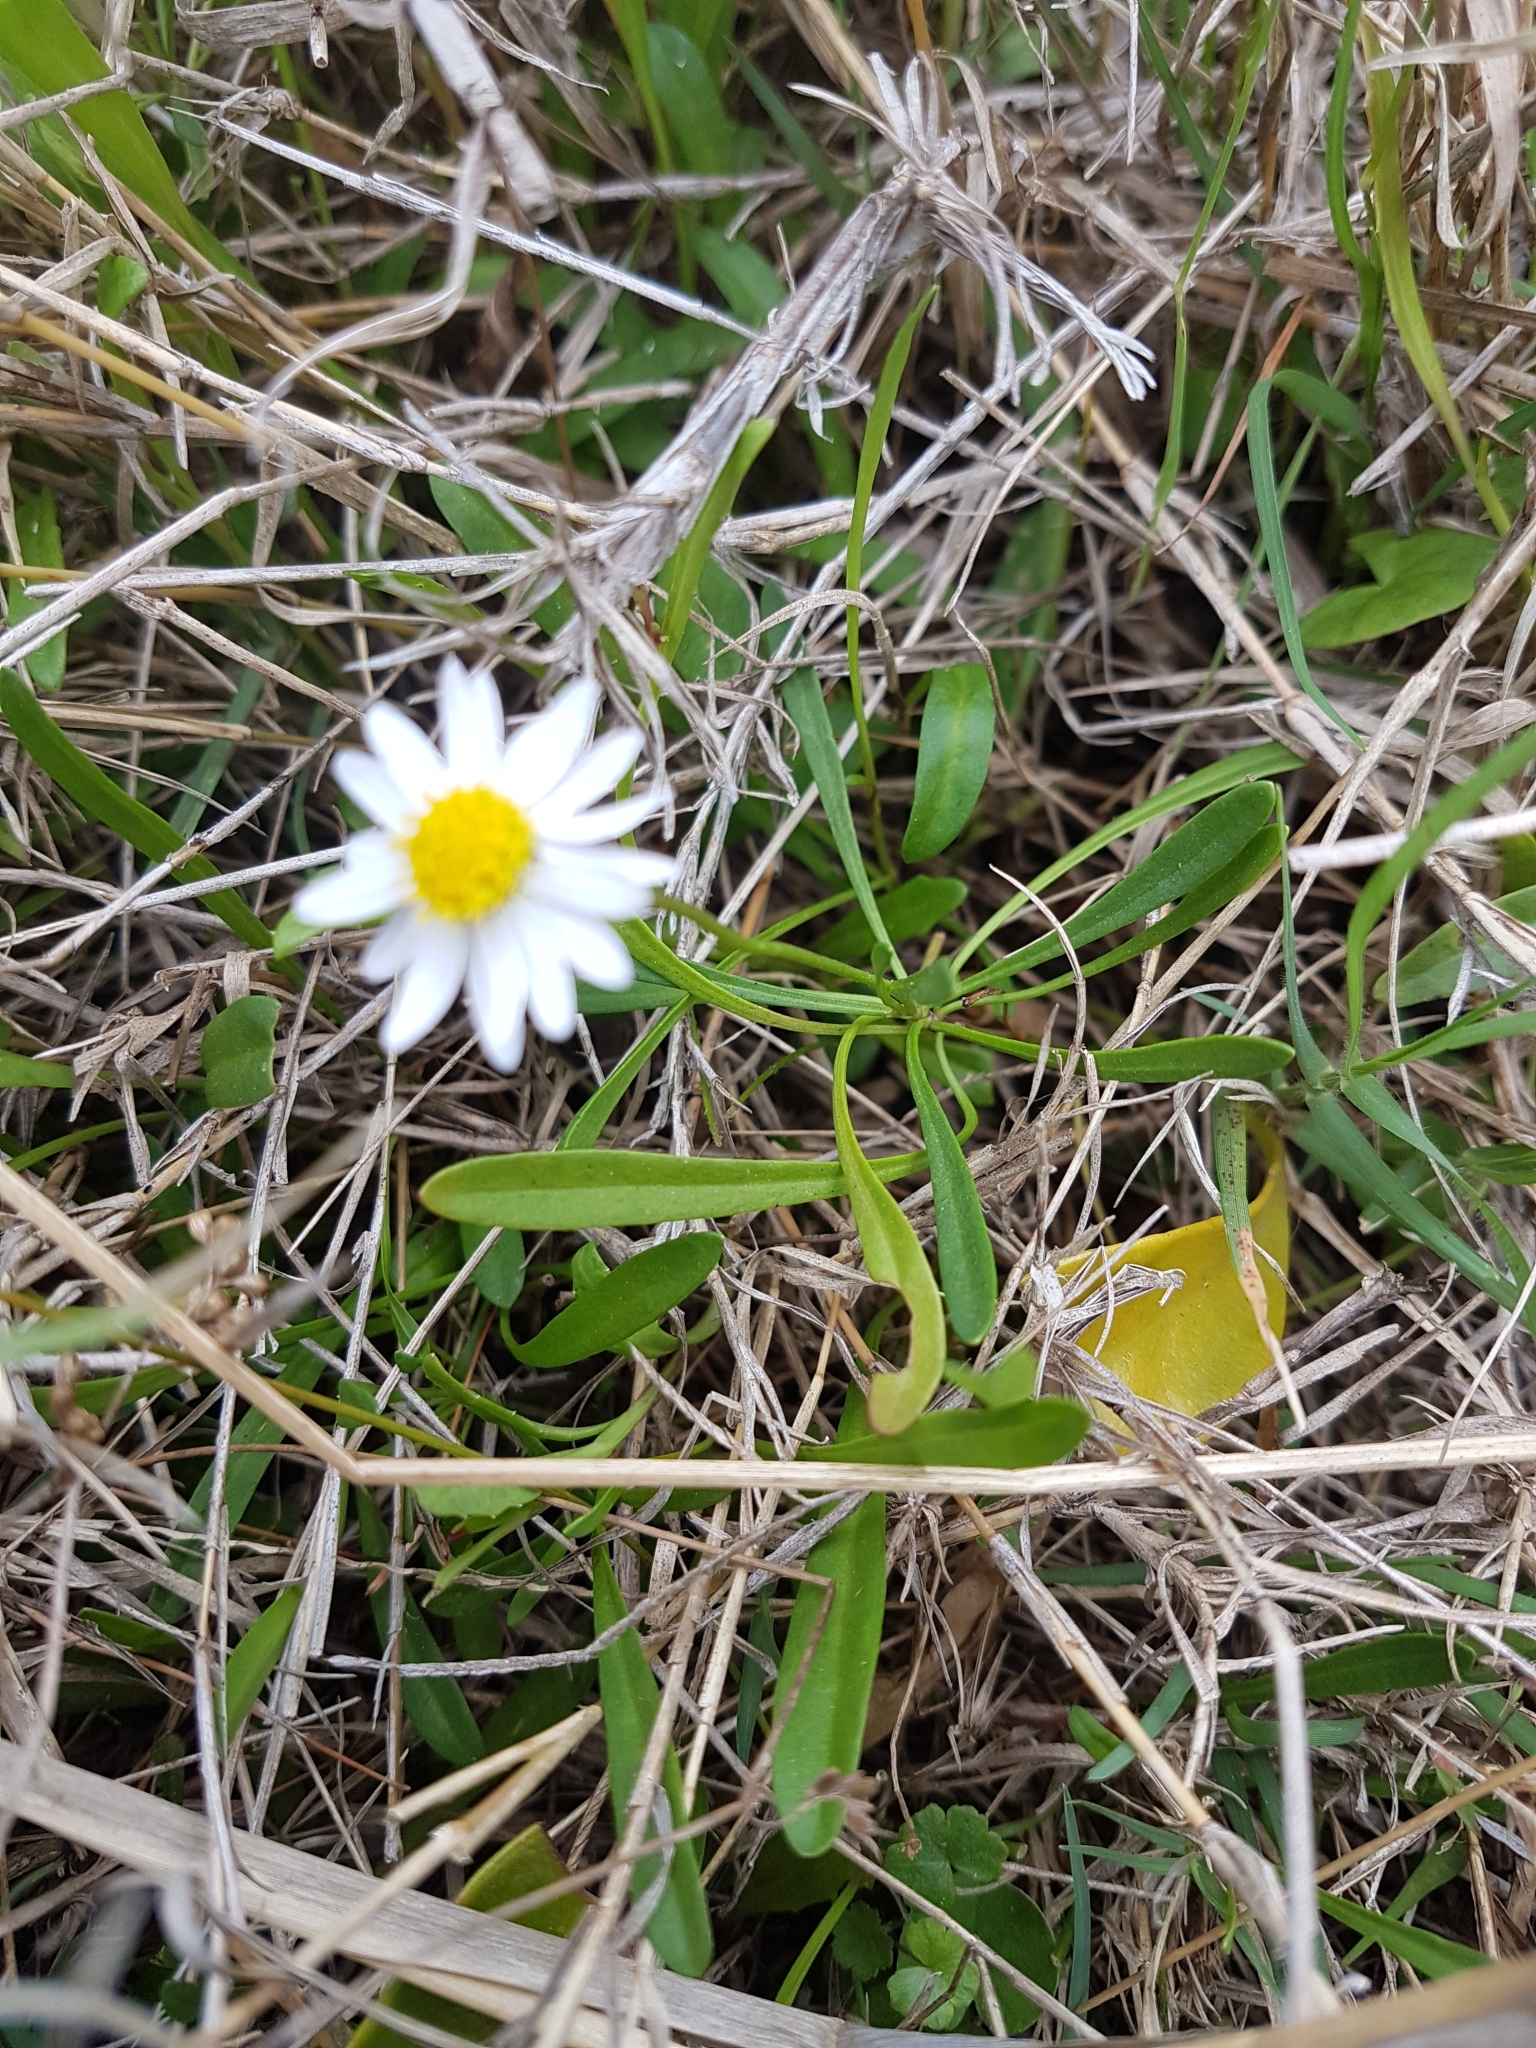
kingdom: Plantae
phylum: Tracheophyta
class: Magnoliopsida
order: Asterales
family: Asteraceae
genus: Brachyscome
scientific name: Brachyscome graminea
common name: Grass daisy
